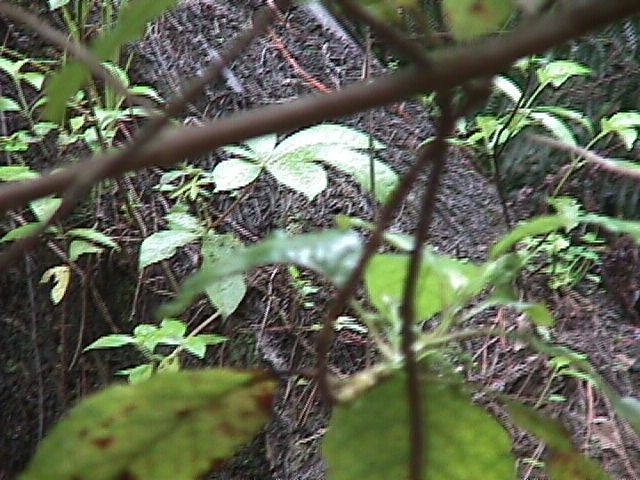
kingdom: Plantae
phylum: Tracheophyta
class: Magnoliopsida
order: Apiales
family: Araliaceae
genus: Schefflera
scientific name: Schefflera digitata
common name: Pate
